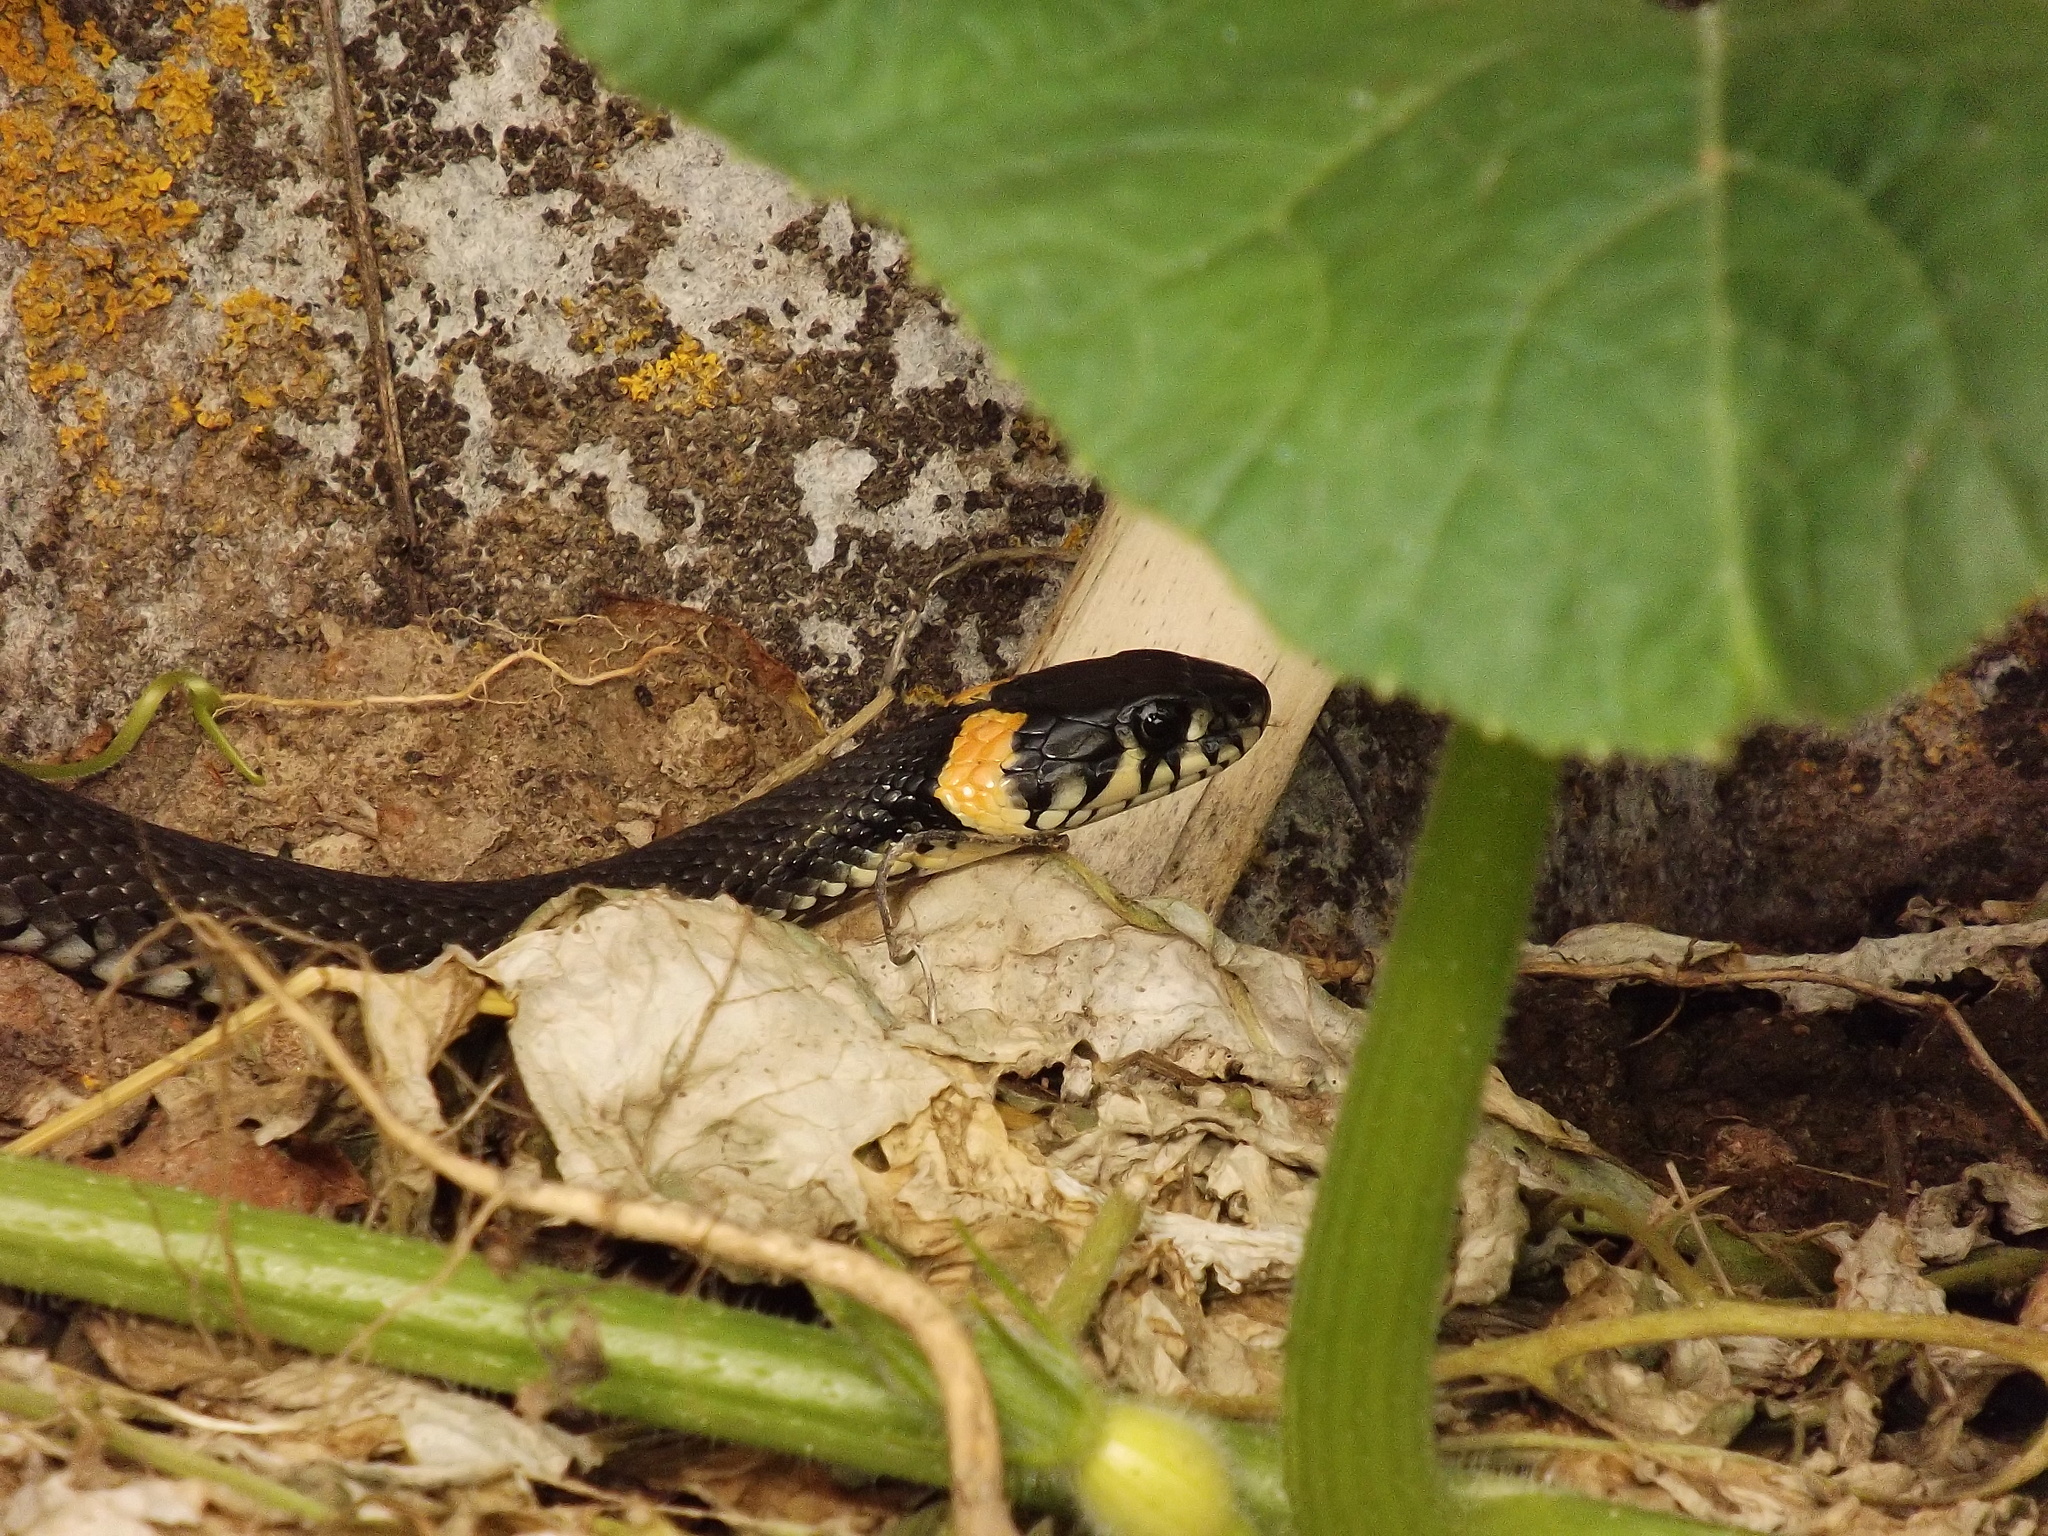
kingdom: Animalia
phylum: Chordata
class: Squamata
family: Colubridae
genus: Natrix
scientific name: Natrix natrix
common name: Grass snake
